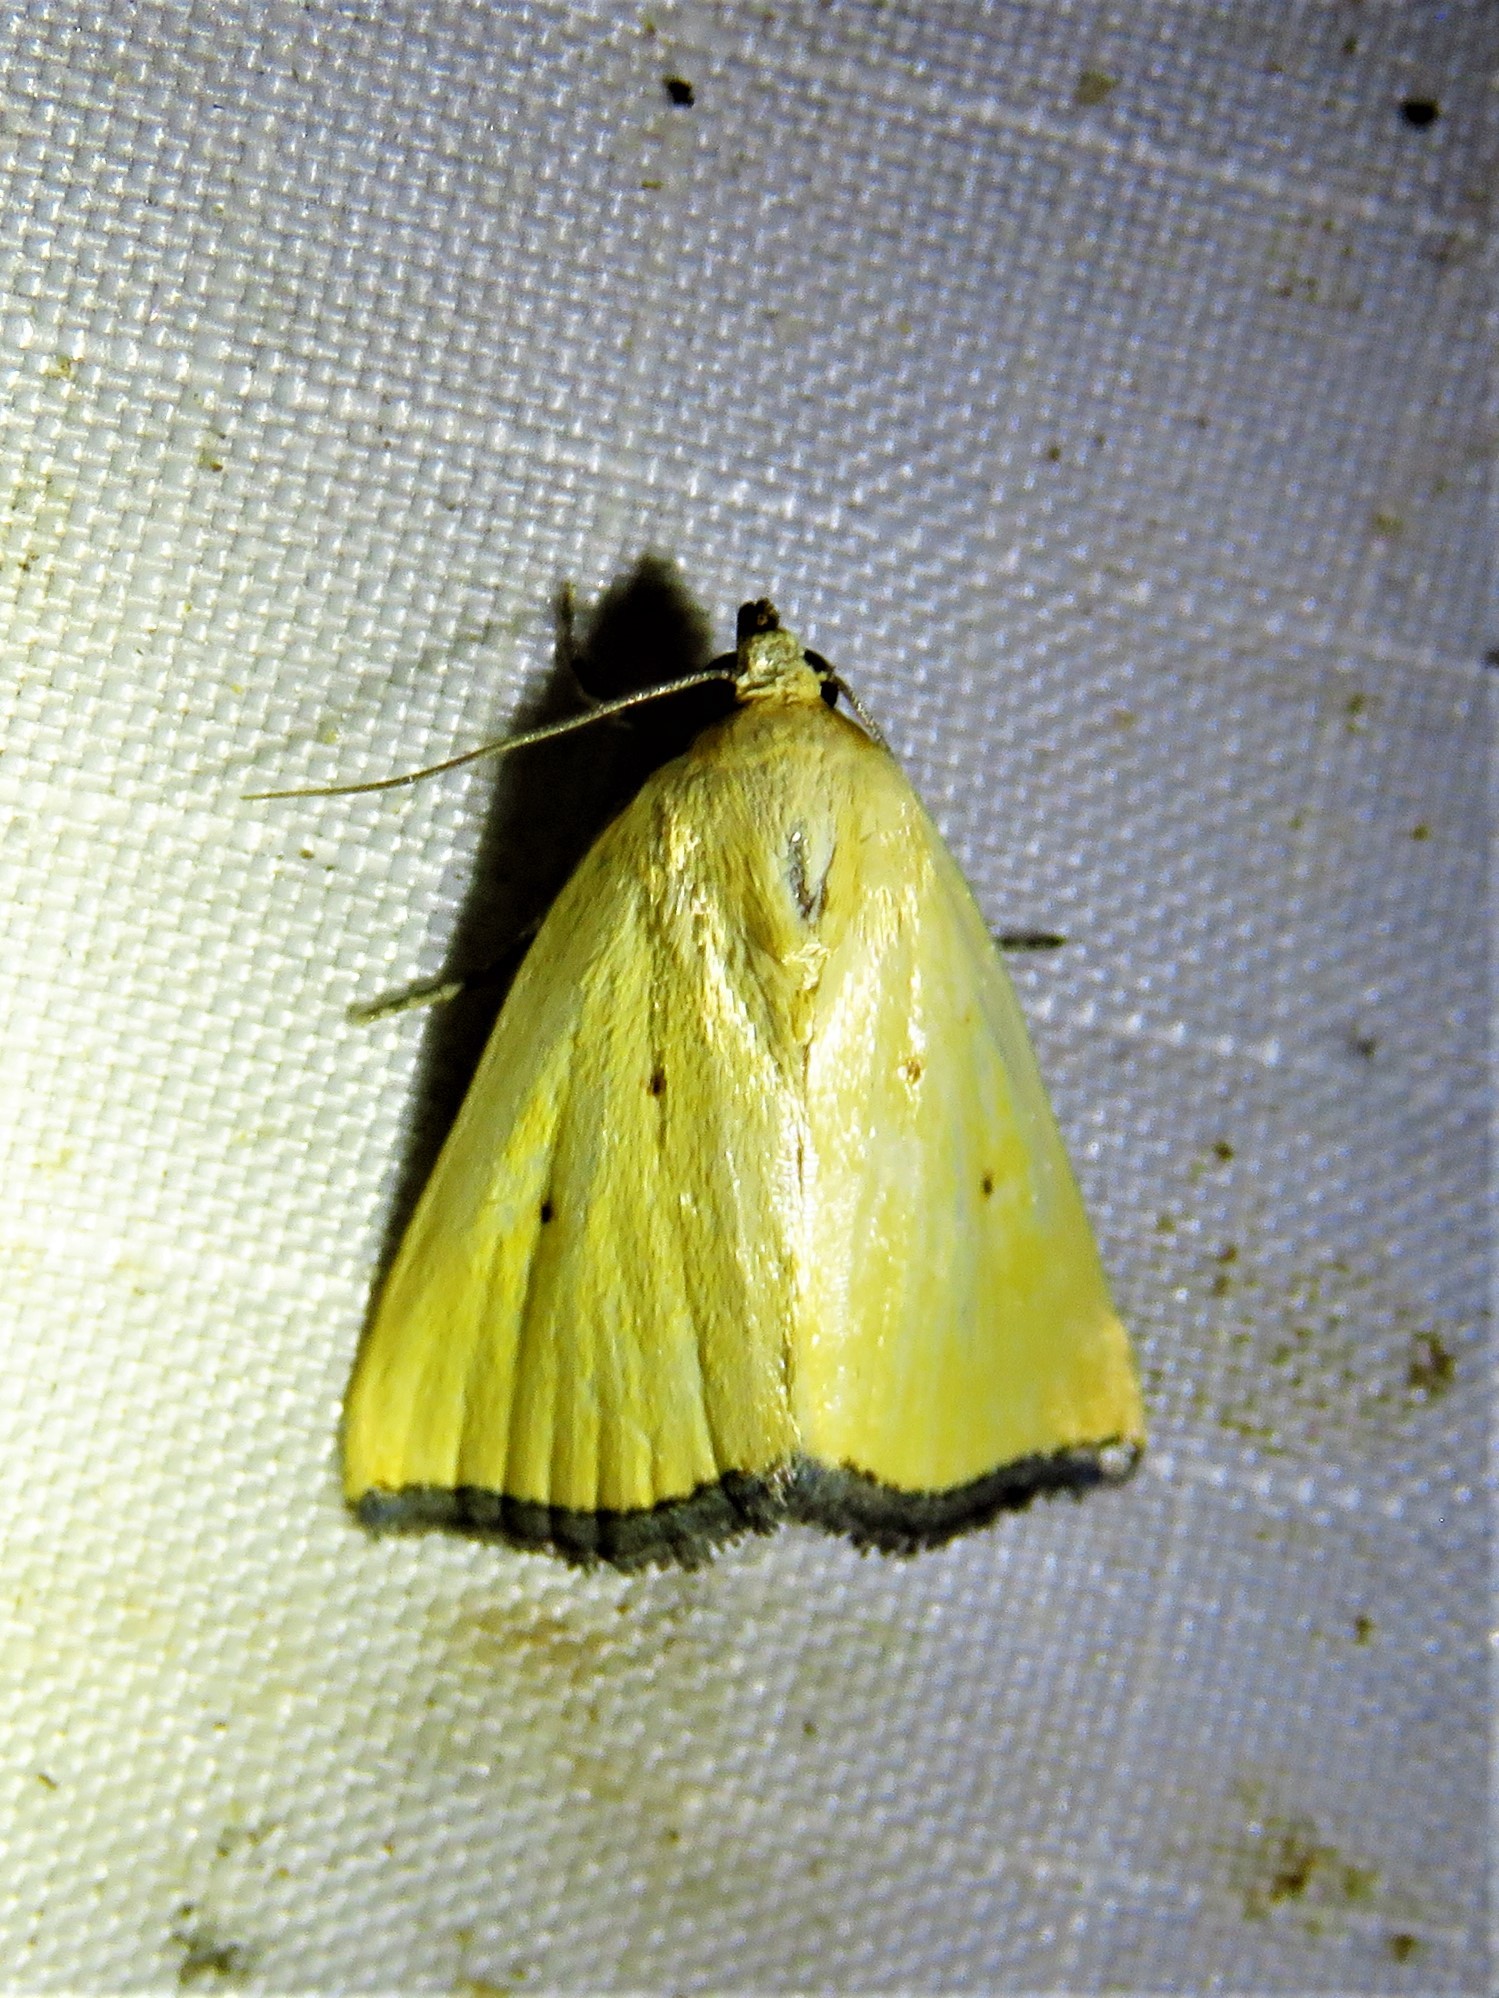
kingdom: Animalia
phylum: Arthropoda
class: Insecta
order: Lepidoptera
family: Noctuidae
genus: Marimatha
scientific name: Marimatha nigrofimbria
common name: Black-bordered lemon moth
